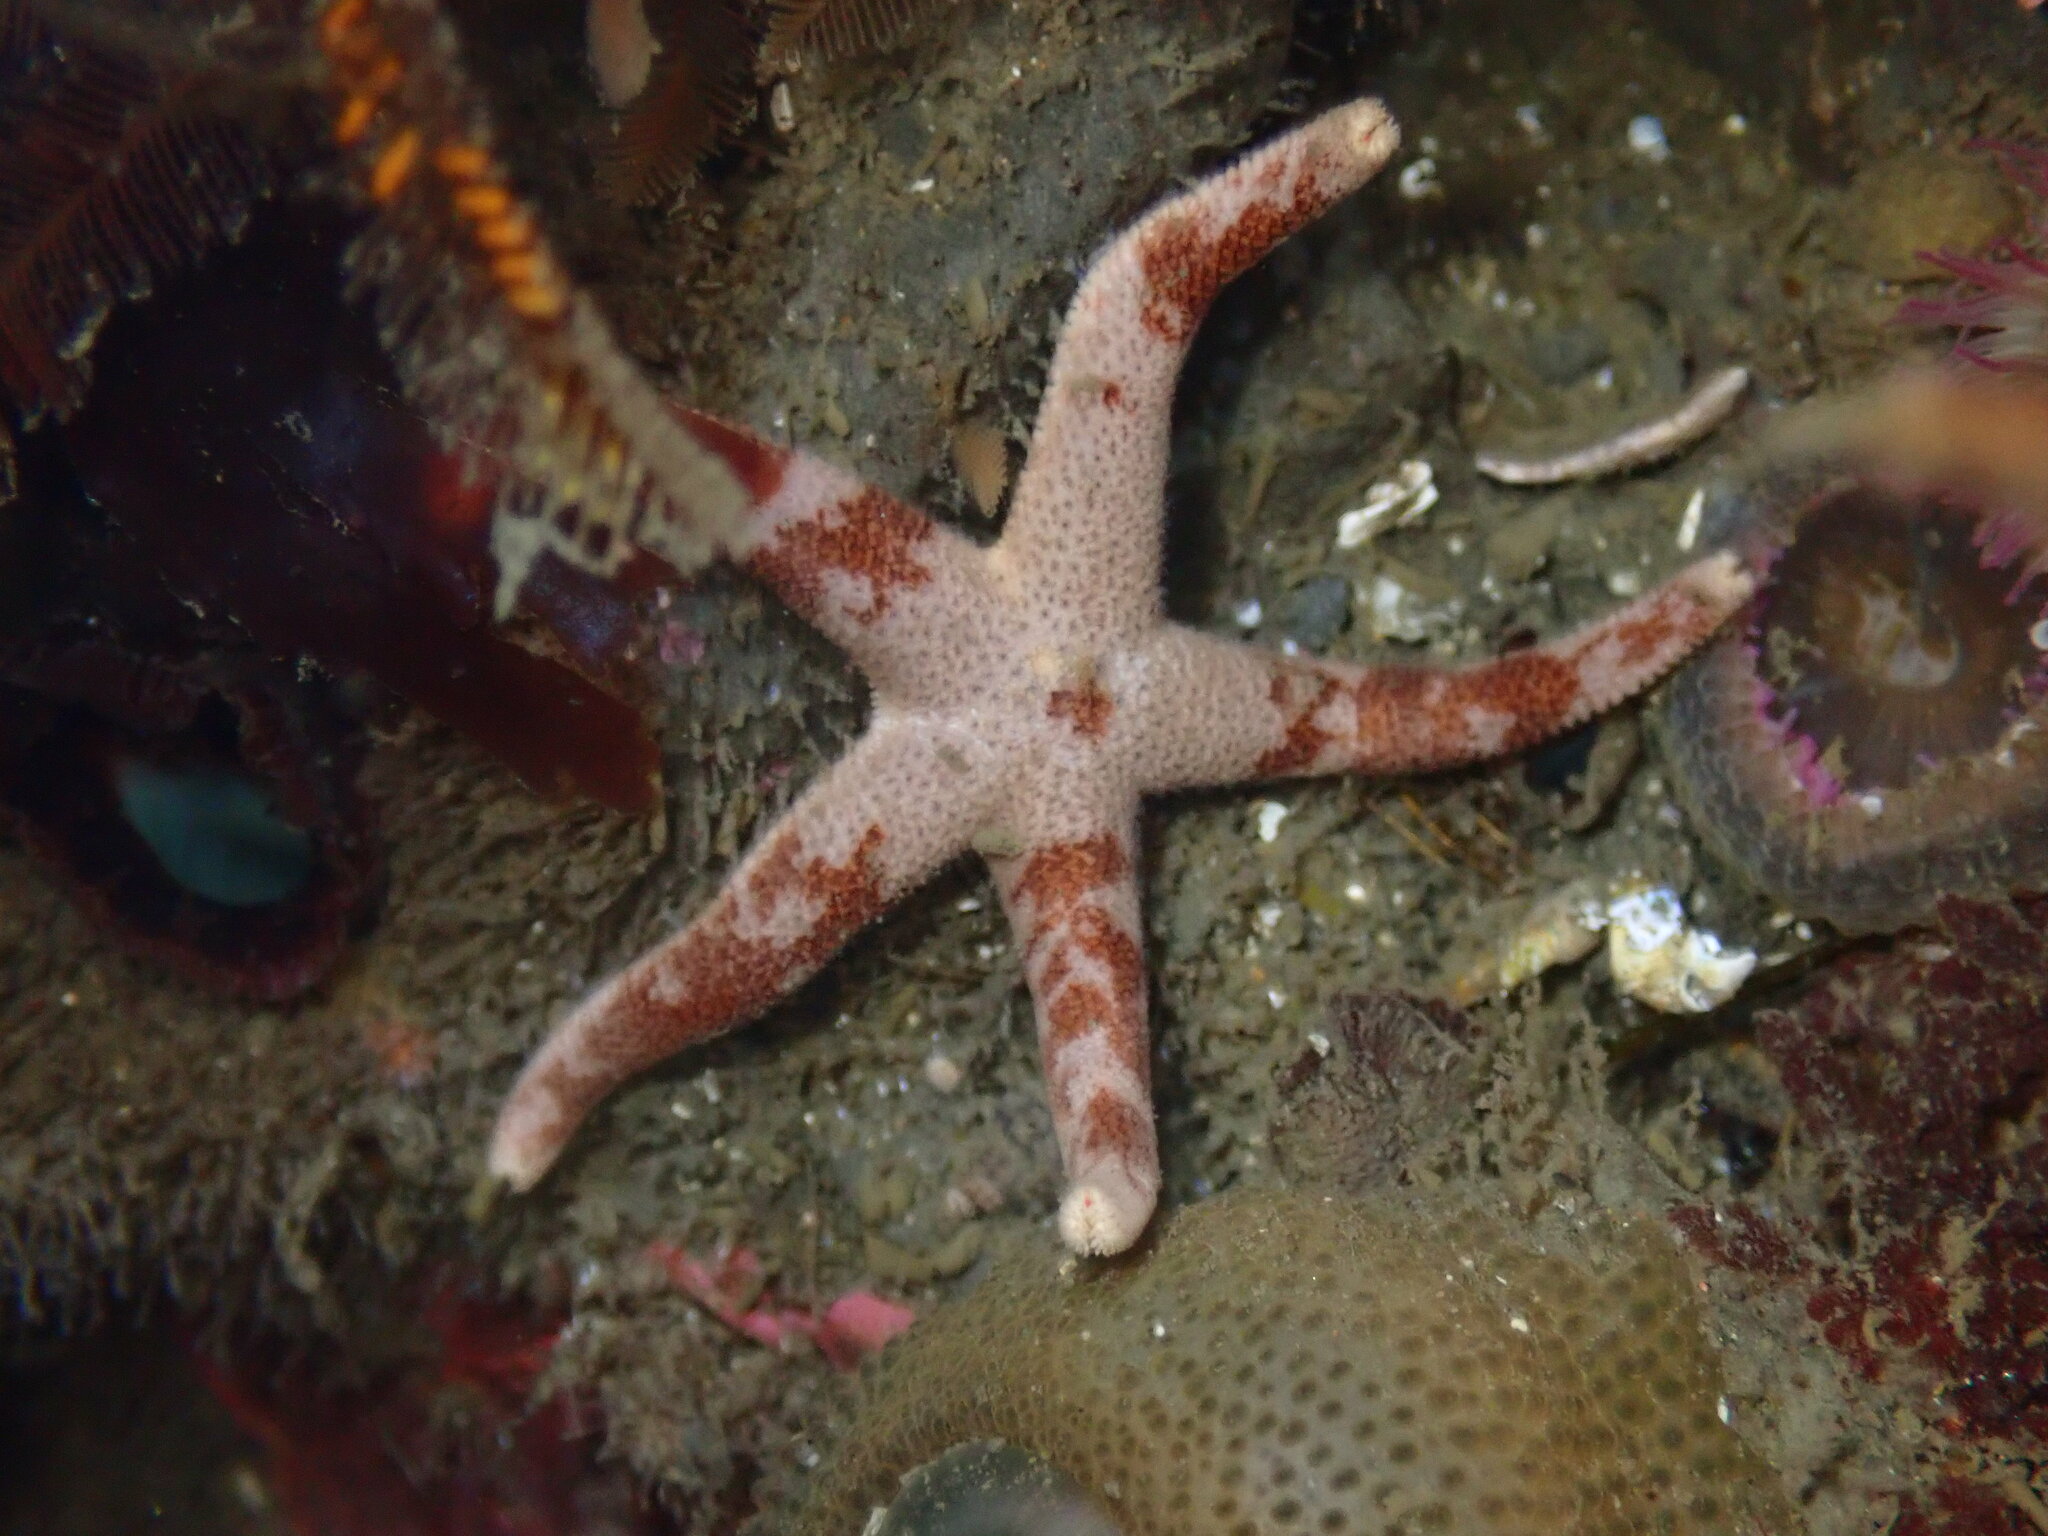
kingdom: Animalia
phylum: Echinodermata
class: Asteroidea
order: Spinulosida
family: Echinasteridae
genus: Henricia
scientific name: Henricia pumila
